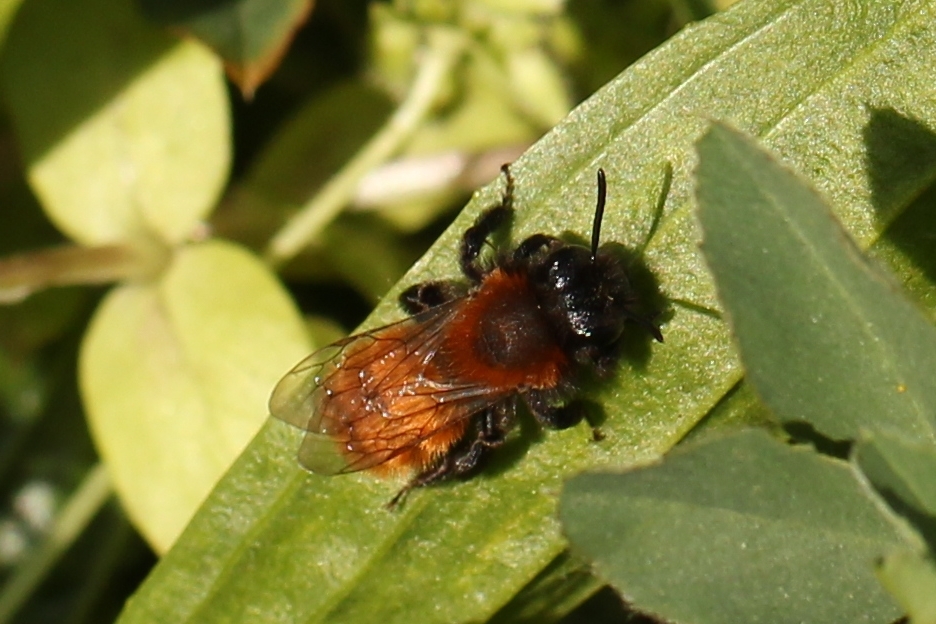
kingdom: Animalia
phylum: Arthropoda
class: Insecta
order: Hymenoptera
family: Andrenidae
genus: Andrena
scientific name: Andrena fulva
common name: Tawny mining bee
